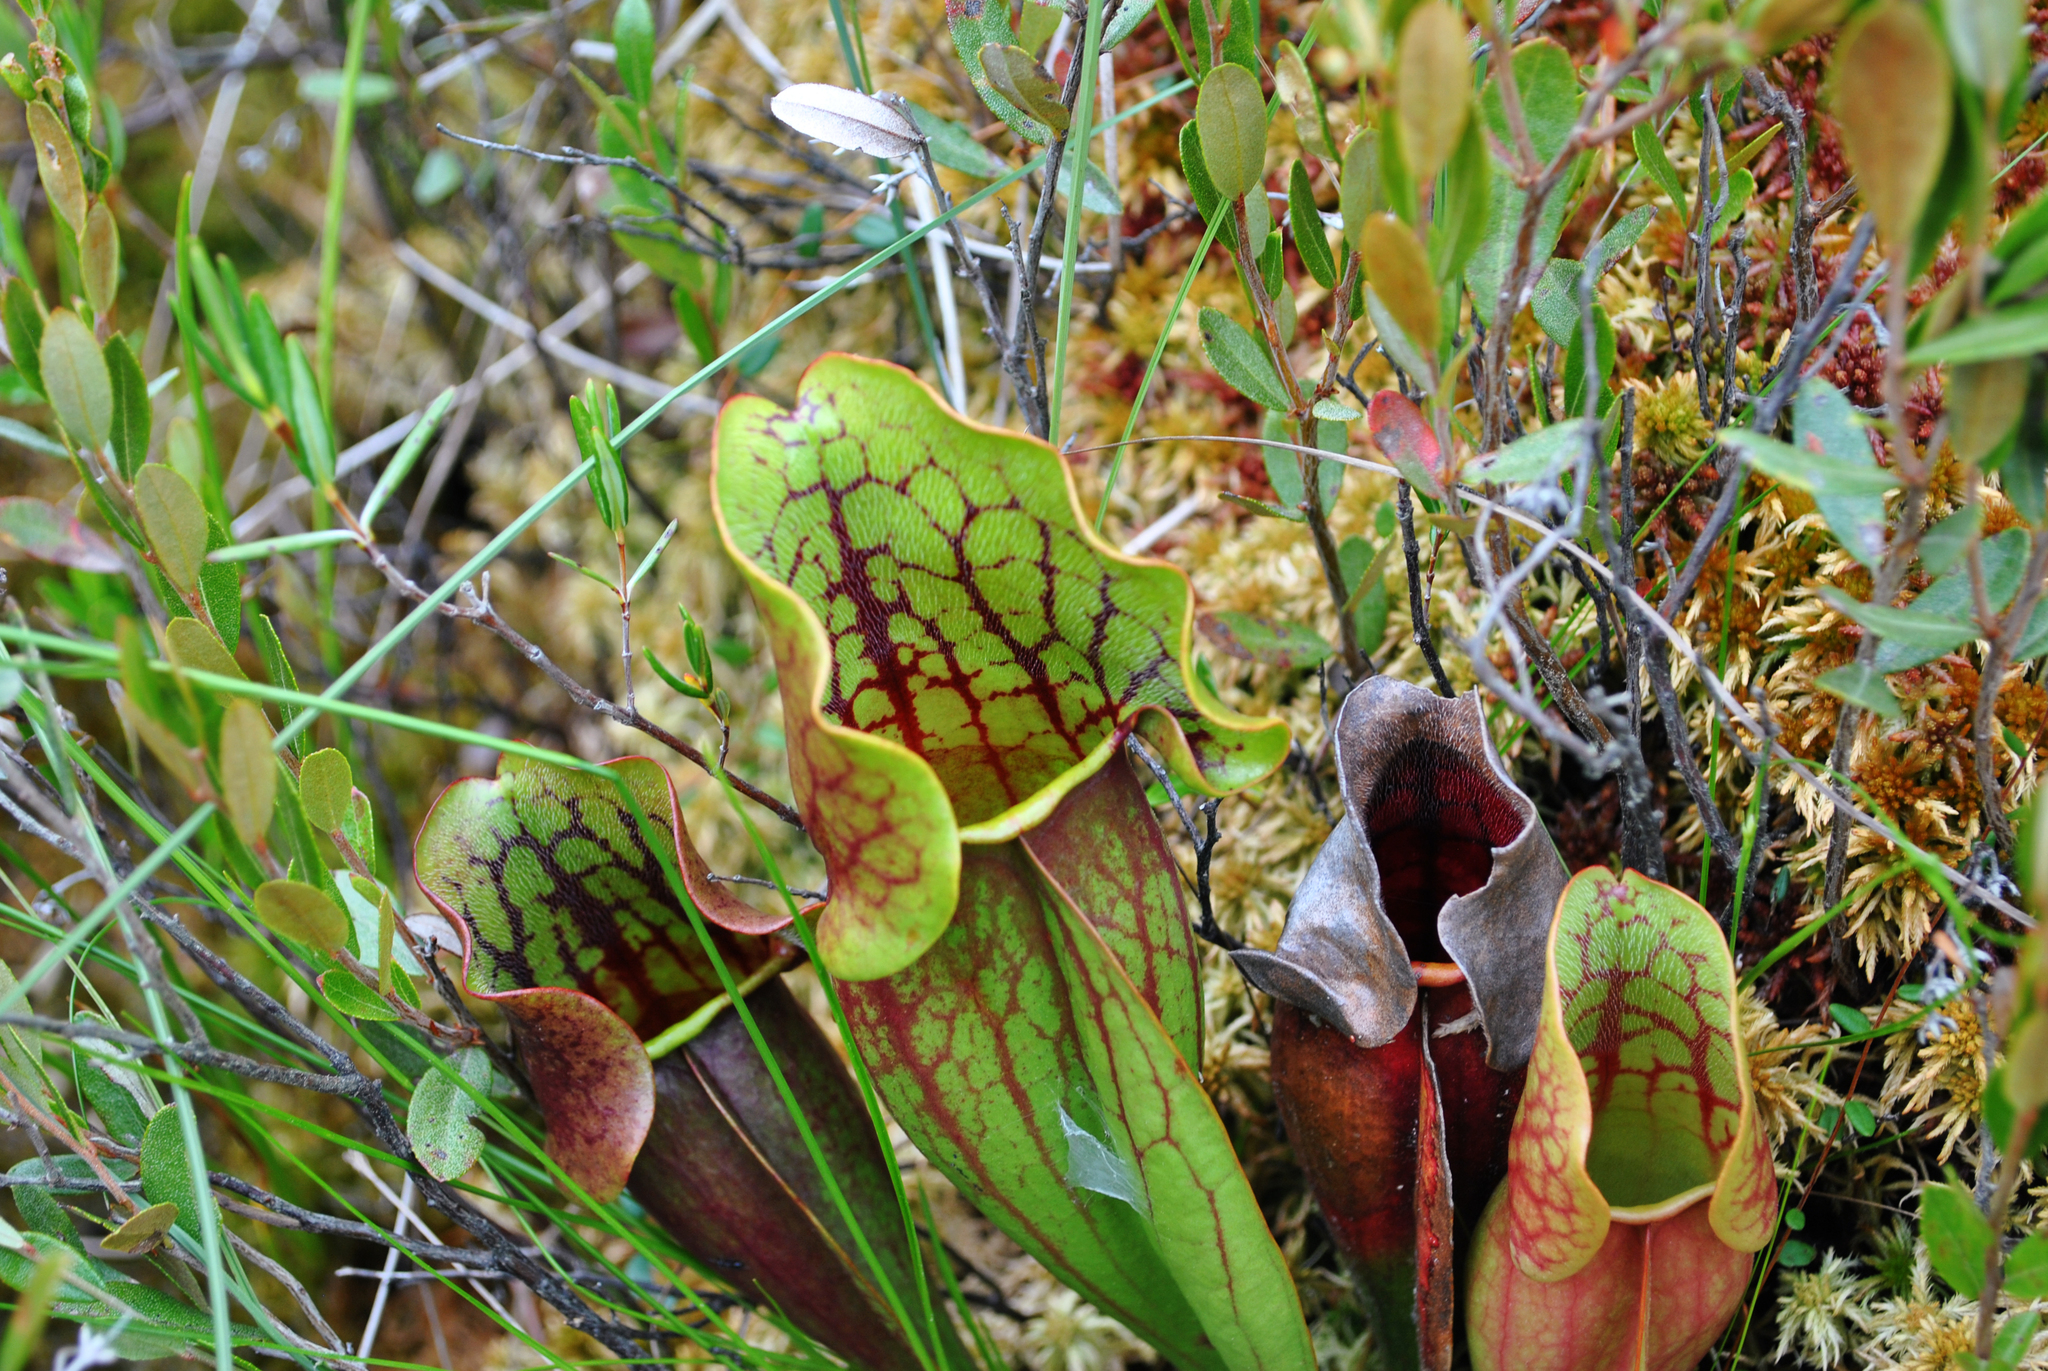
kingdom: Plantae
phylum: Tracheophyta
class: Magnoliopsida
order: Ericales
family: Sarraceniaceae
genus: Sarracenia
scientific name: Sarracenia purpurea
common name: Pitcherplant
